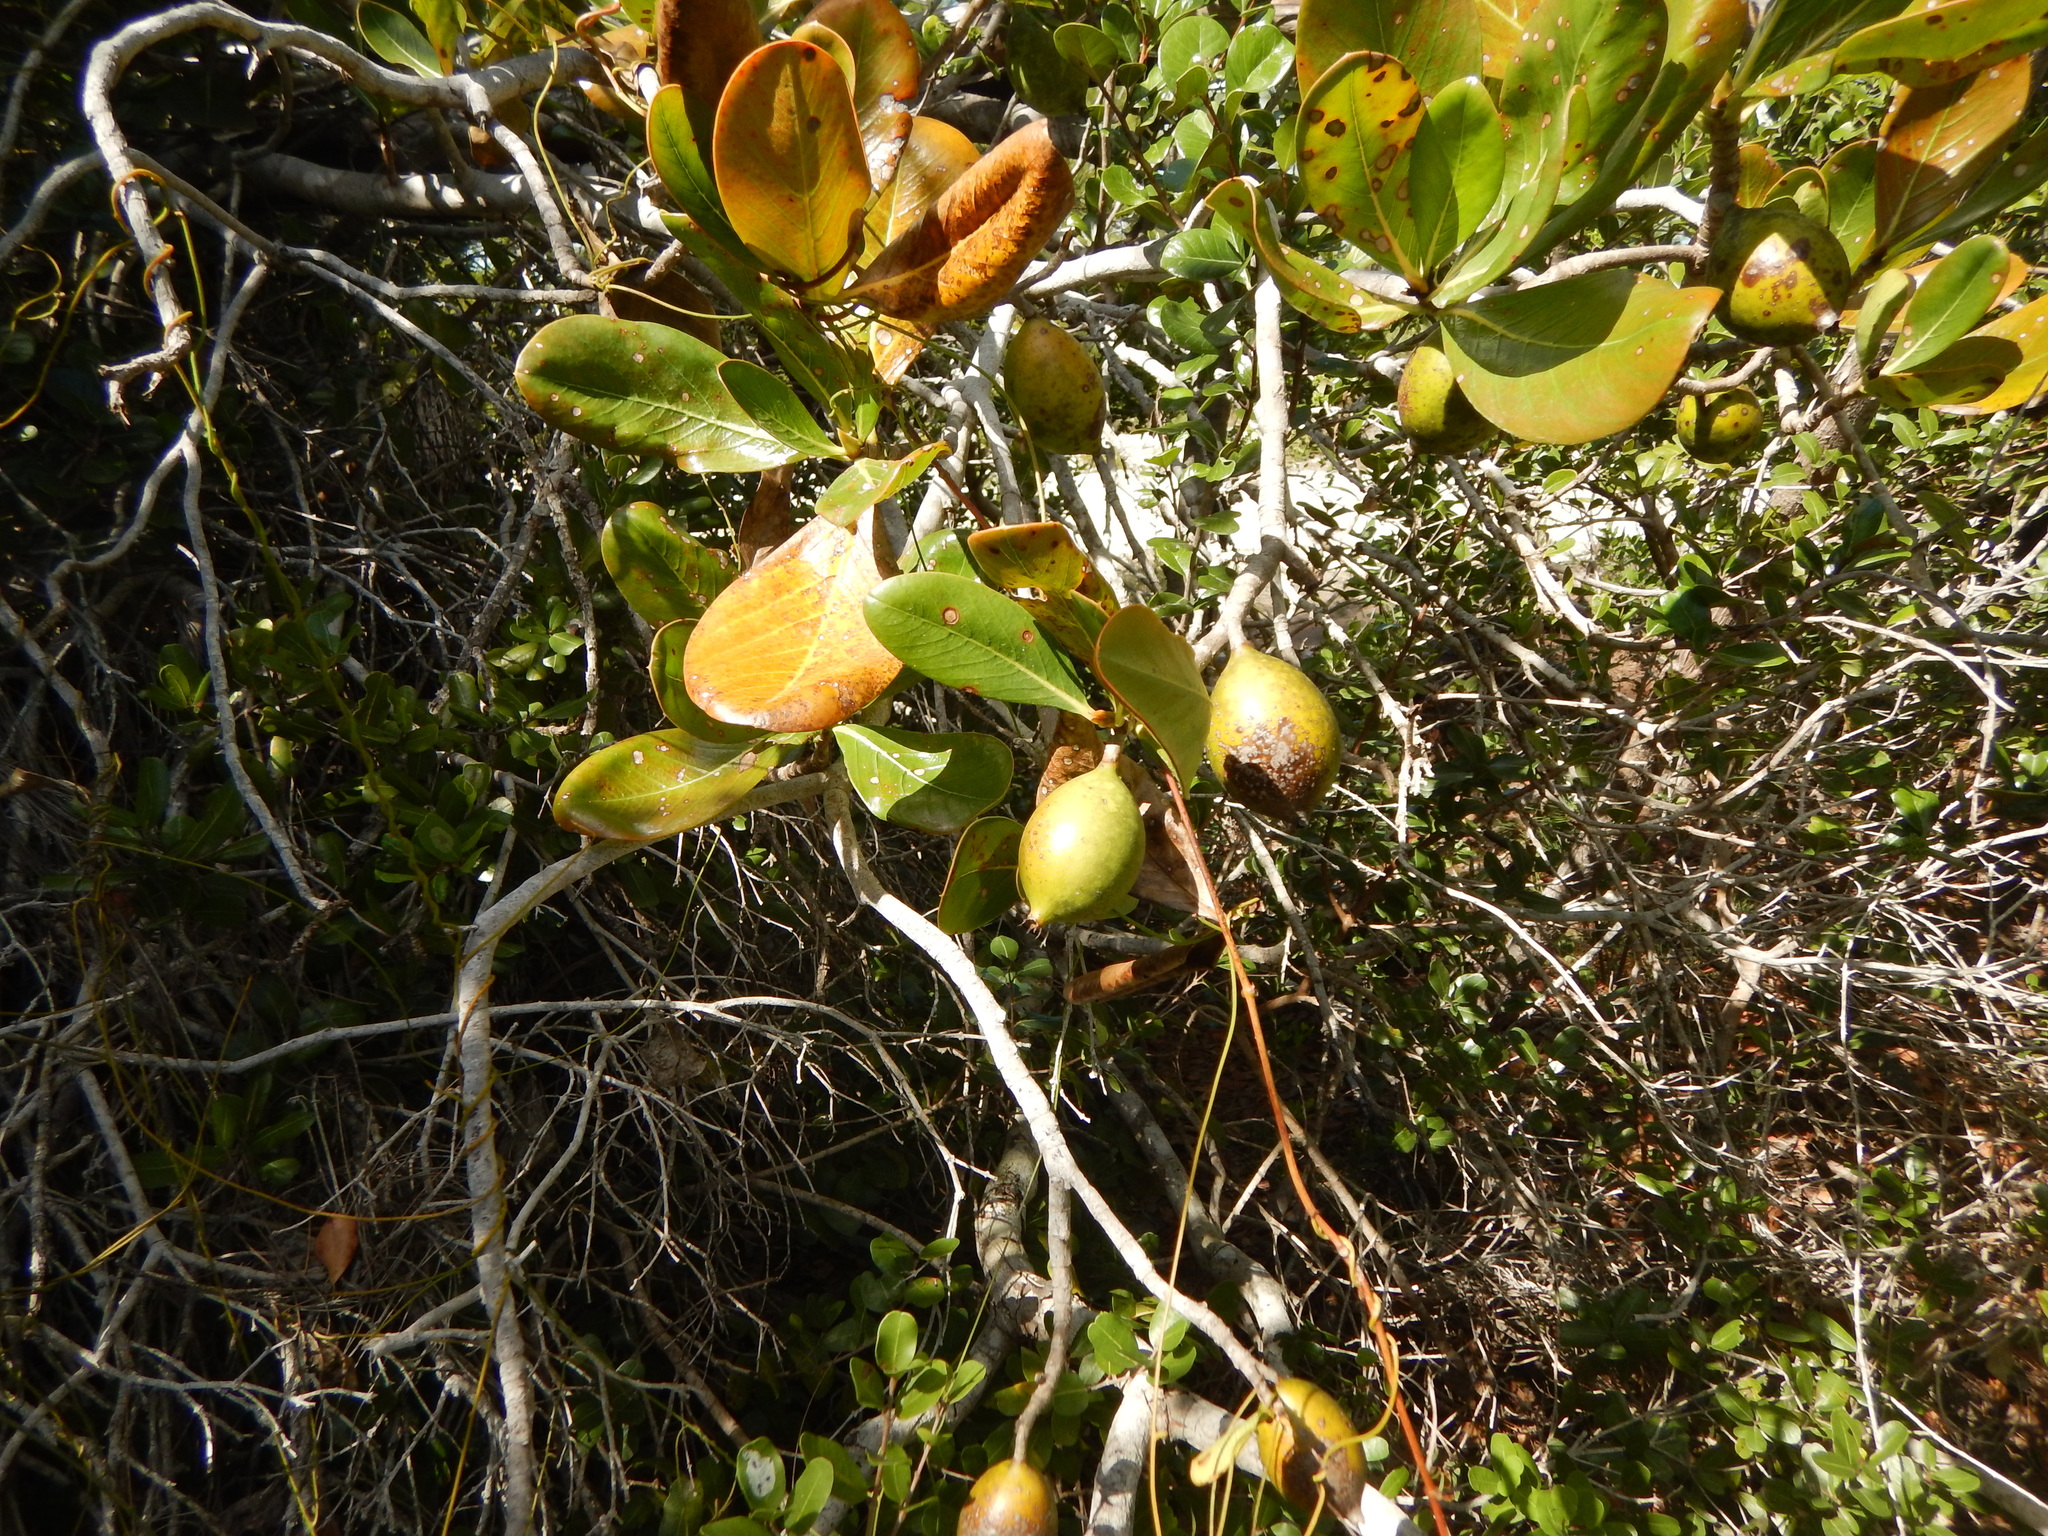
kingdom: Plantae
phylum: Tracheophyta
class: Magnoliopsida
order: Gentianales
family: Rubiaceae
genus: Casasia
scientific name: Casasia clusiifolia
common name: Seven-year apple
